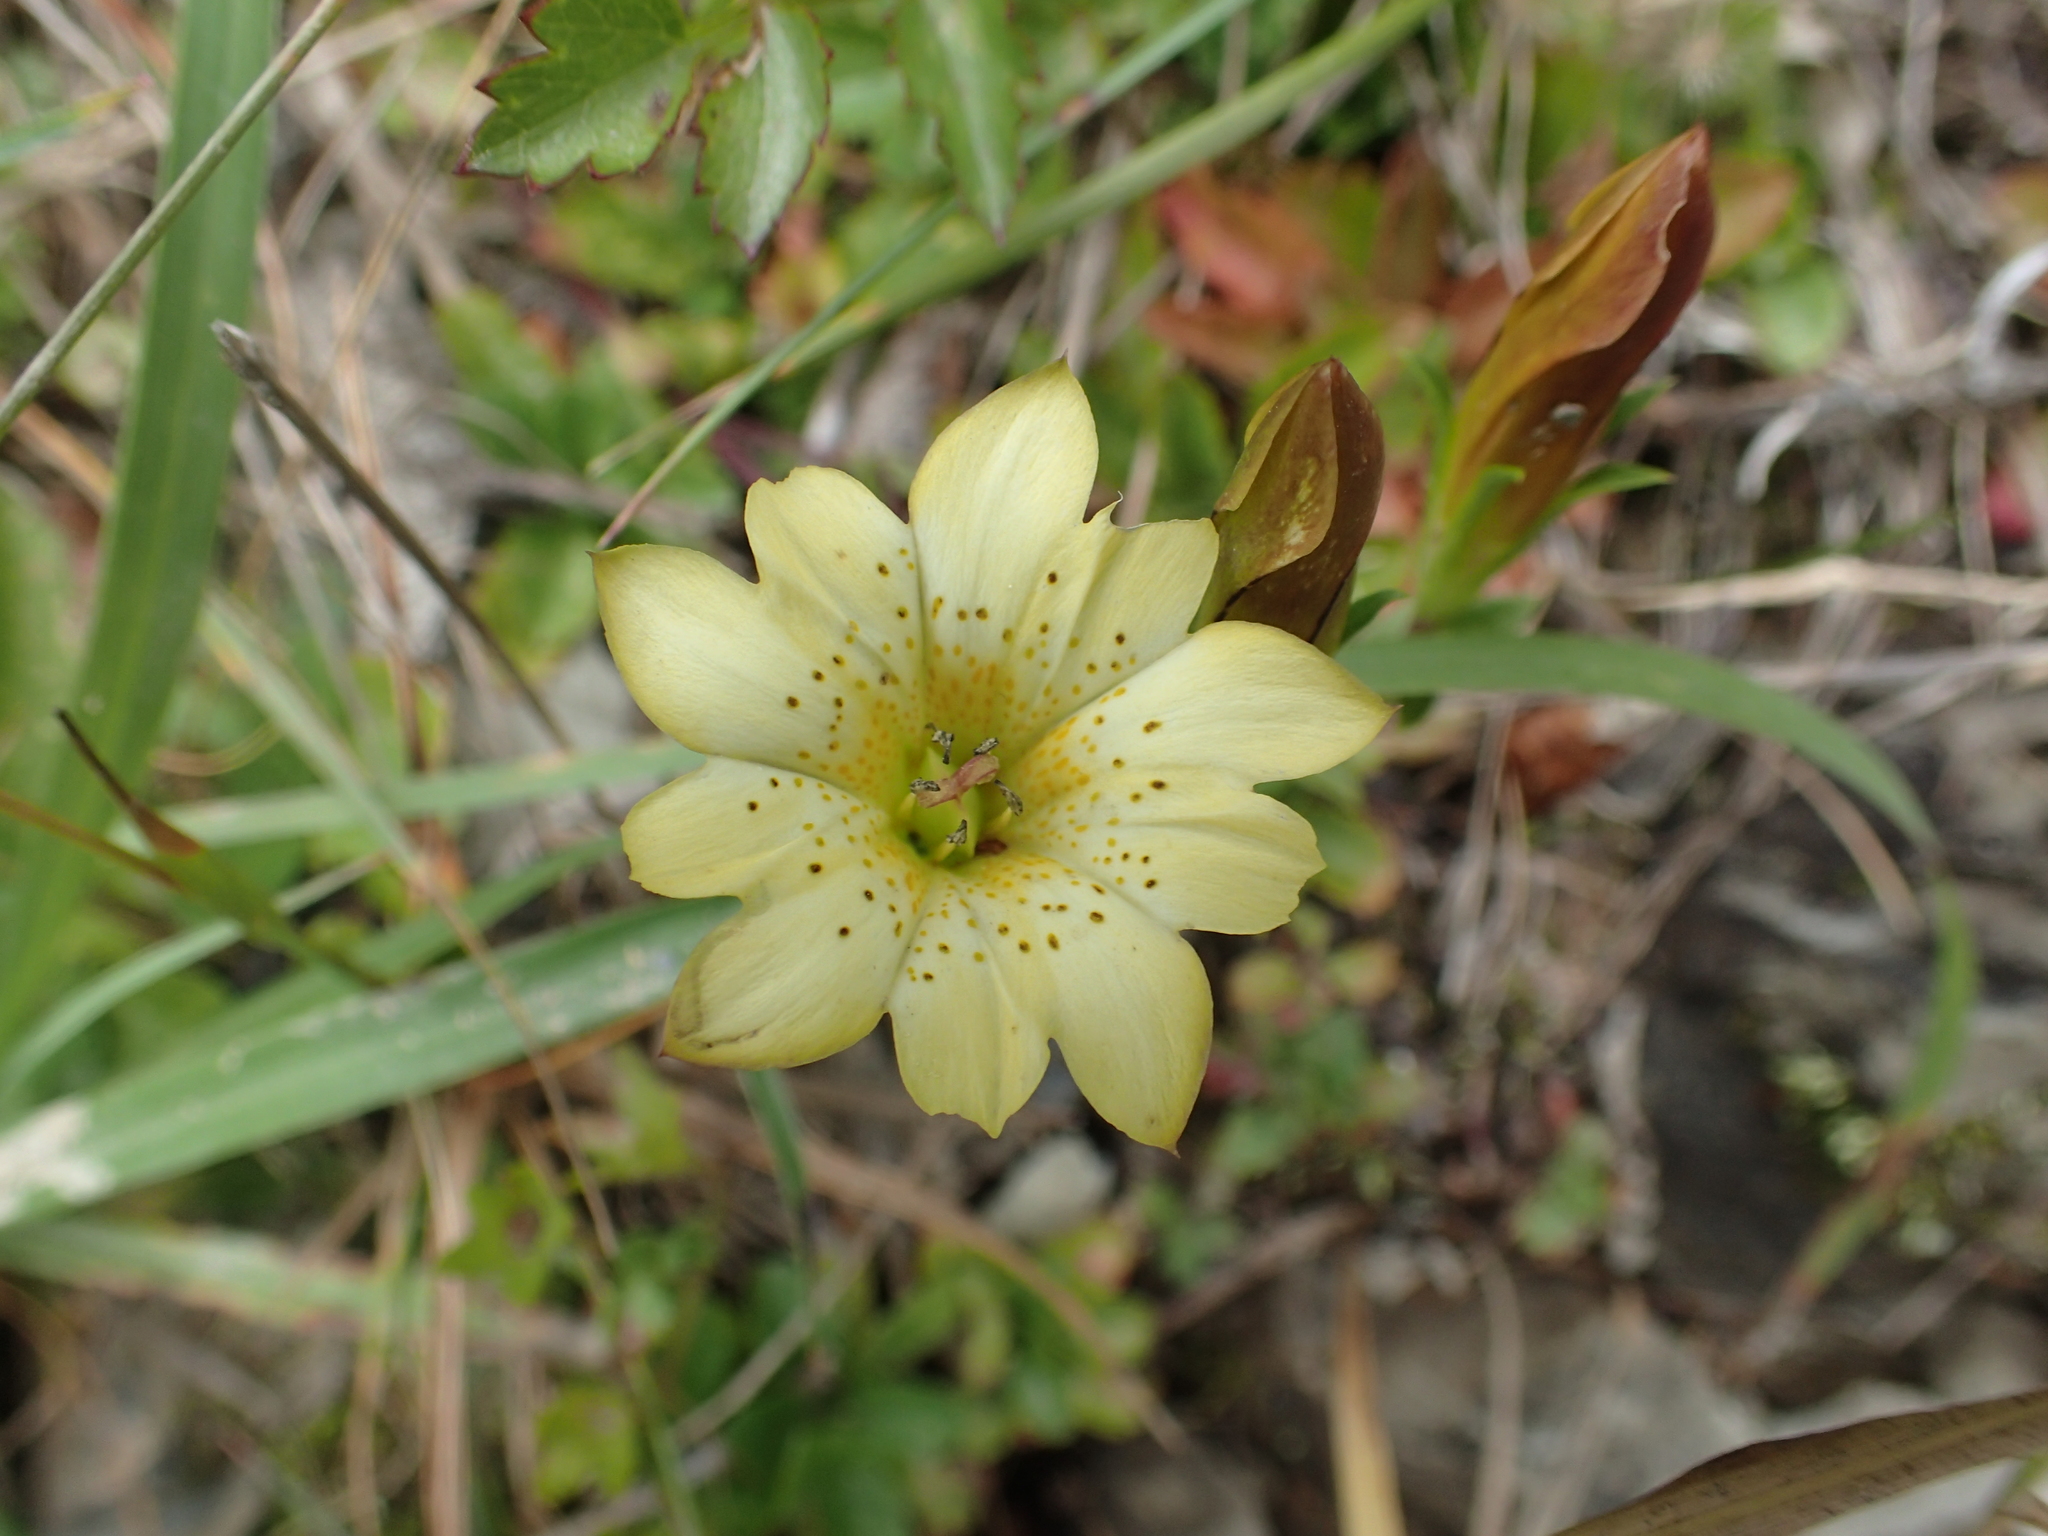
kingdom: Plantae
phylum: Tracheophyta
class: Magnoliopsida
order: Gentianales
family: Gentianaceae
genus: Gentiana
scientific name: Gentiana scabrida
